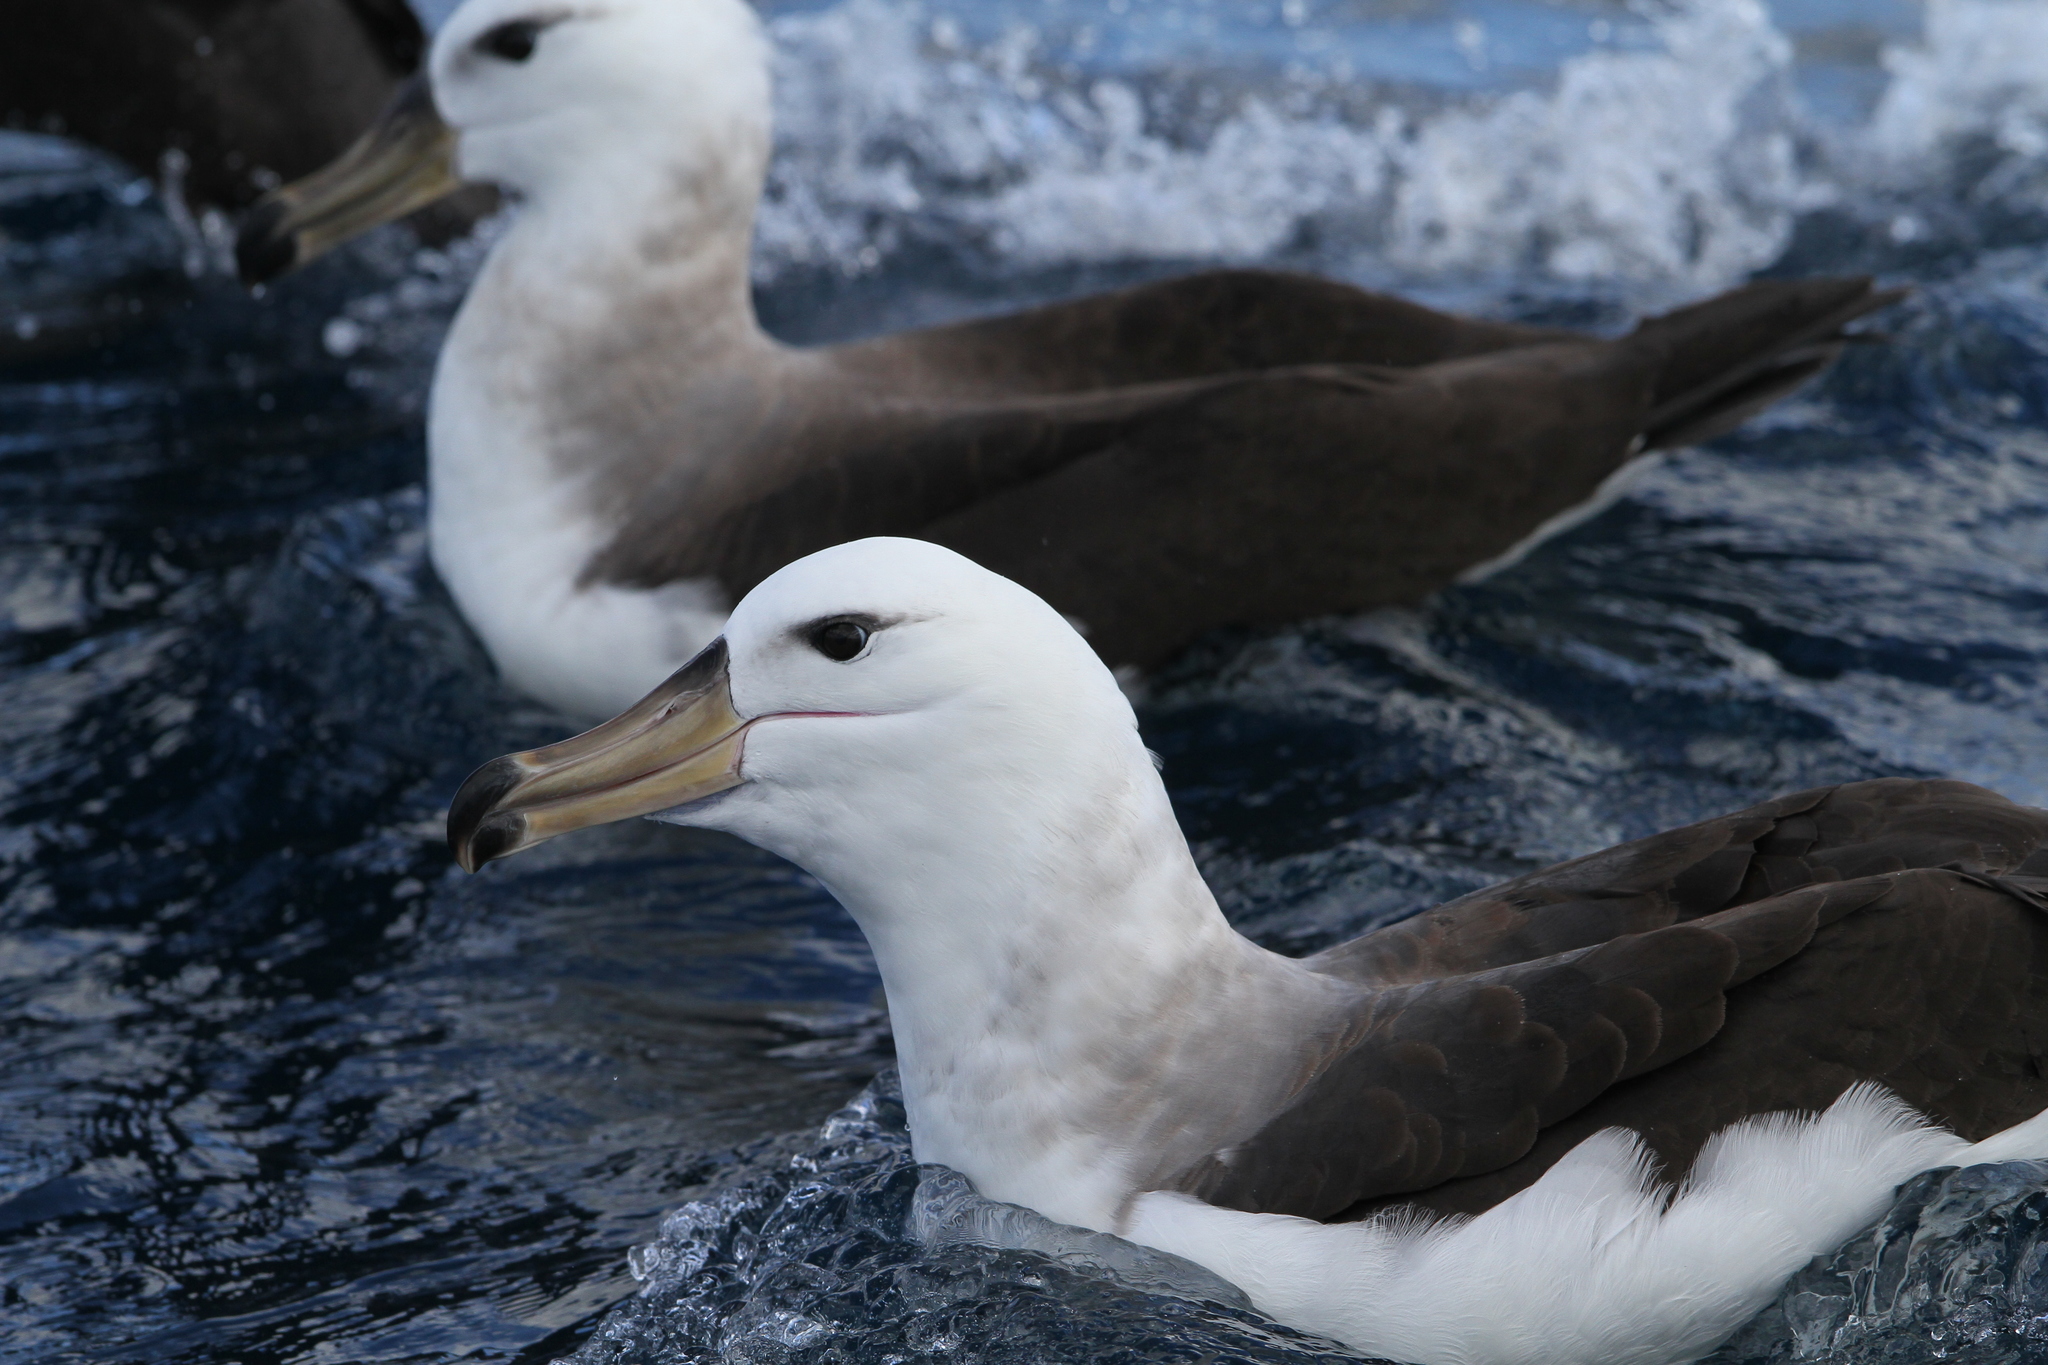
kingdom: Animalia
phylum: Chordata
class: Aves
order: Procellariiformes
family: Diomedeidae
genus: Thalassarche
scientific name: Thalassarche melanophris
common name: Black-browed albatross
